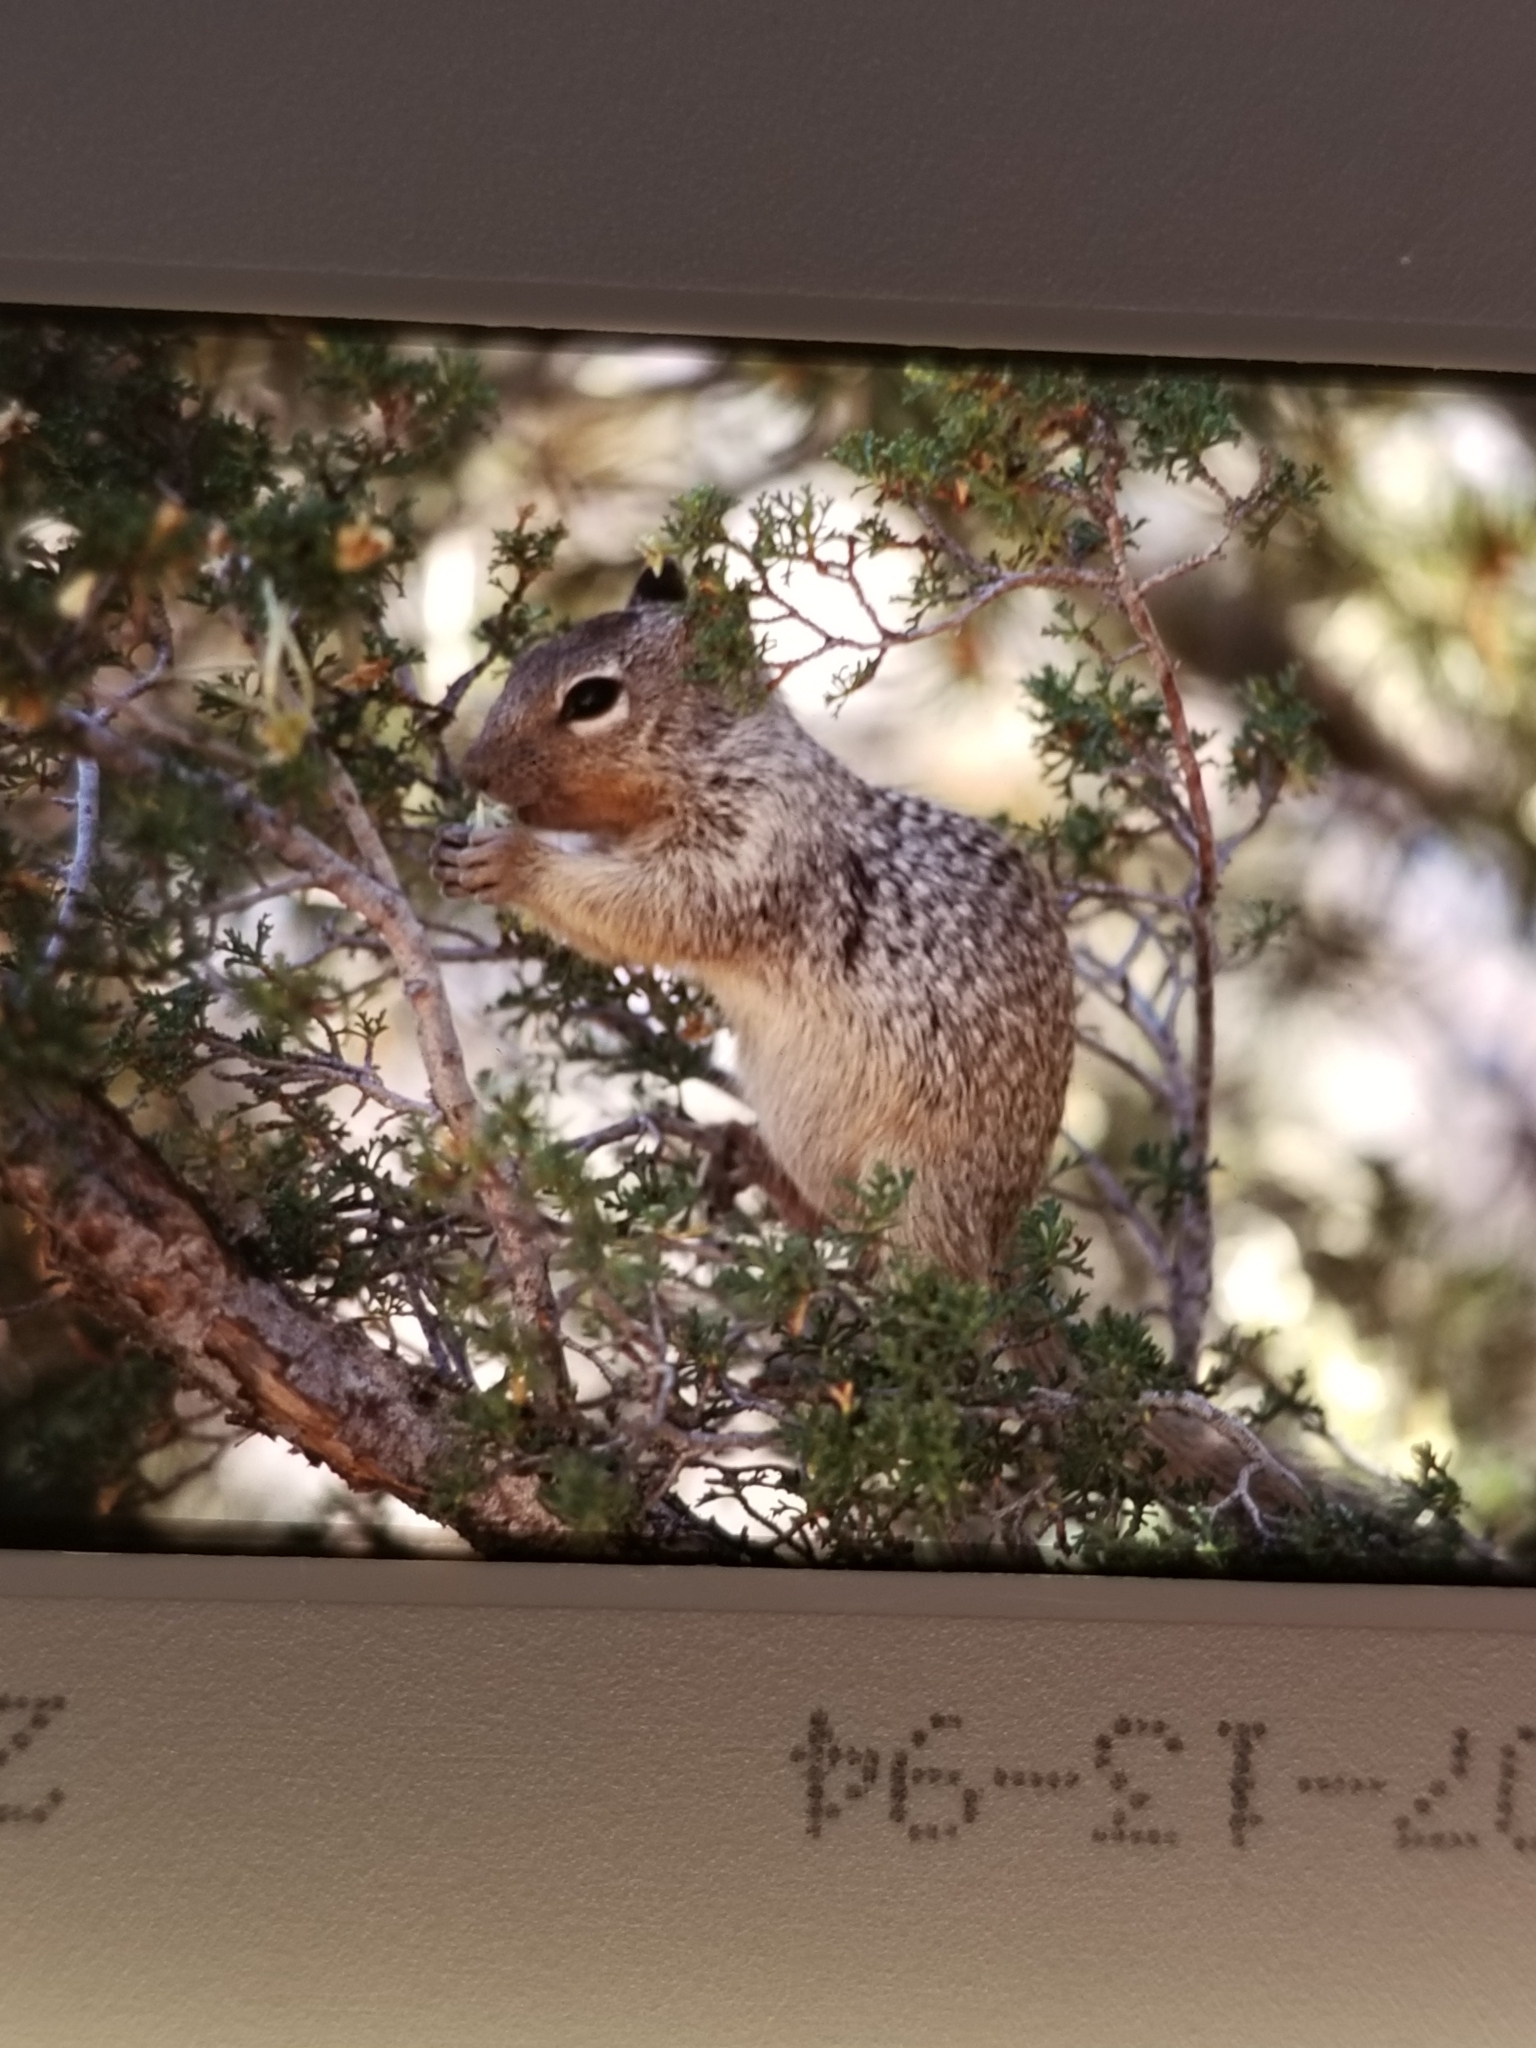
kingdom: Animalia
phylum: Chordata
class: Mammalia
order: Rodentia
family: Sciuridae
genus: Otospermophilus
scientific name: Otospermophilus variegatus
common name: Rock squirrel
